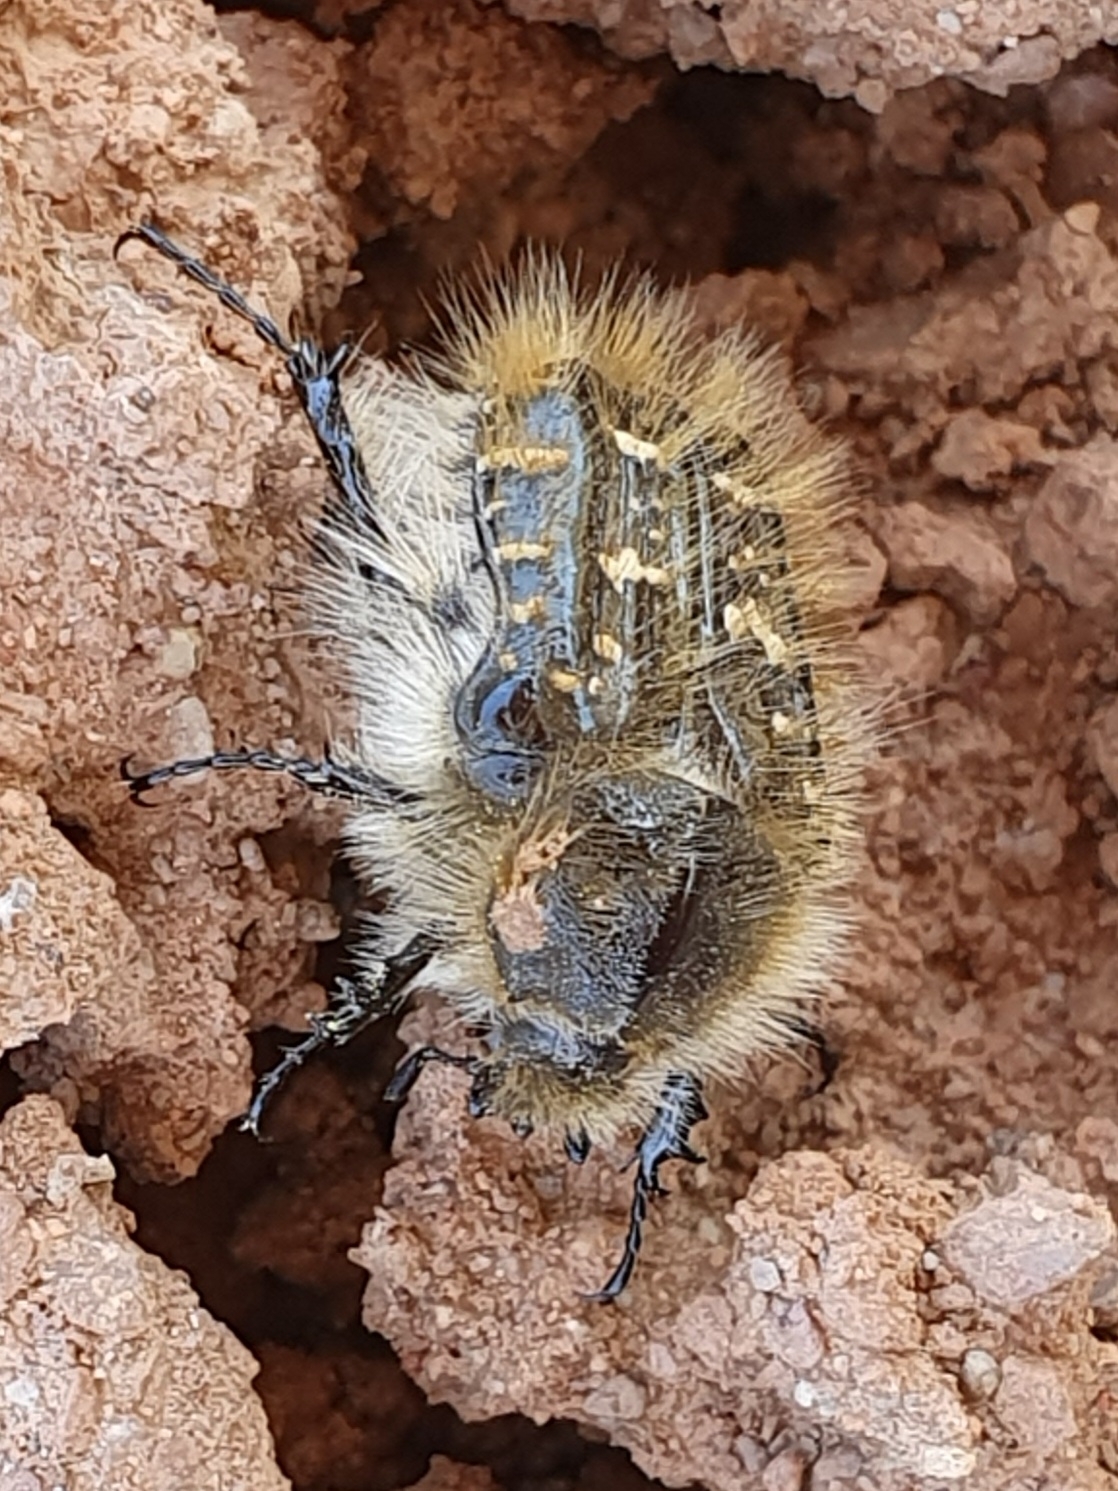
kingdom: Animalia
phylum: Arthropoda
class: Insecta
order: Coleoptera
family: Scarabaeidae
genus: Tropinota
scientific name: Tropinota squalida
